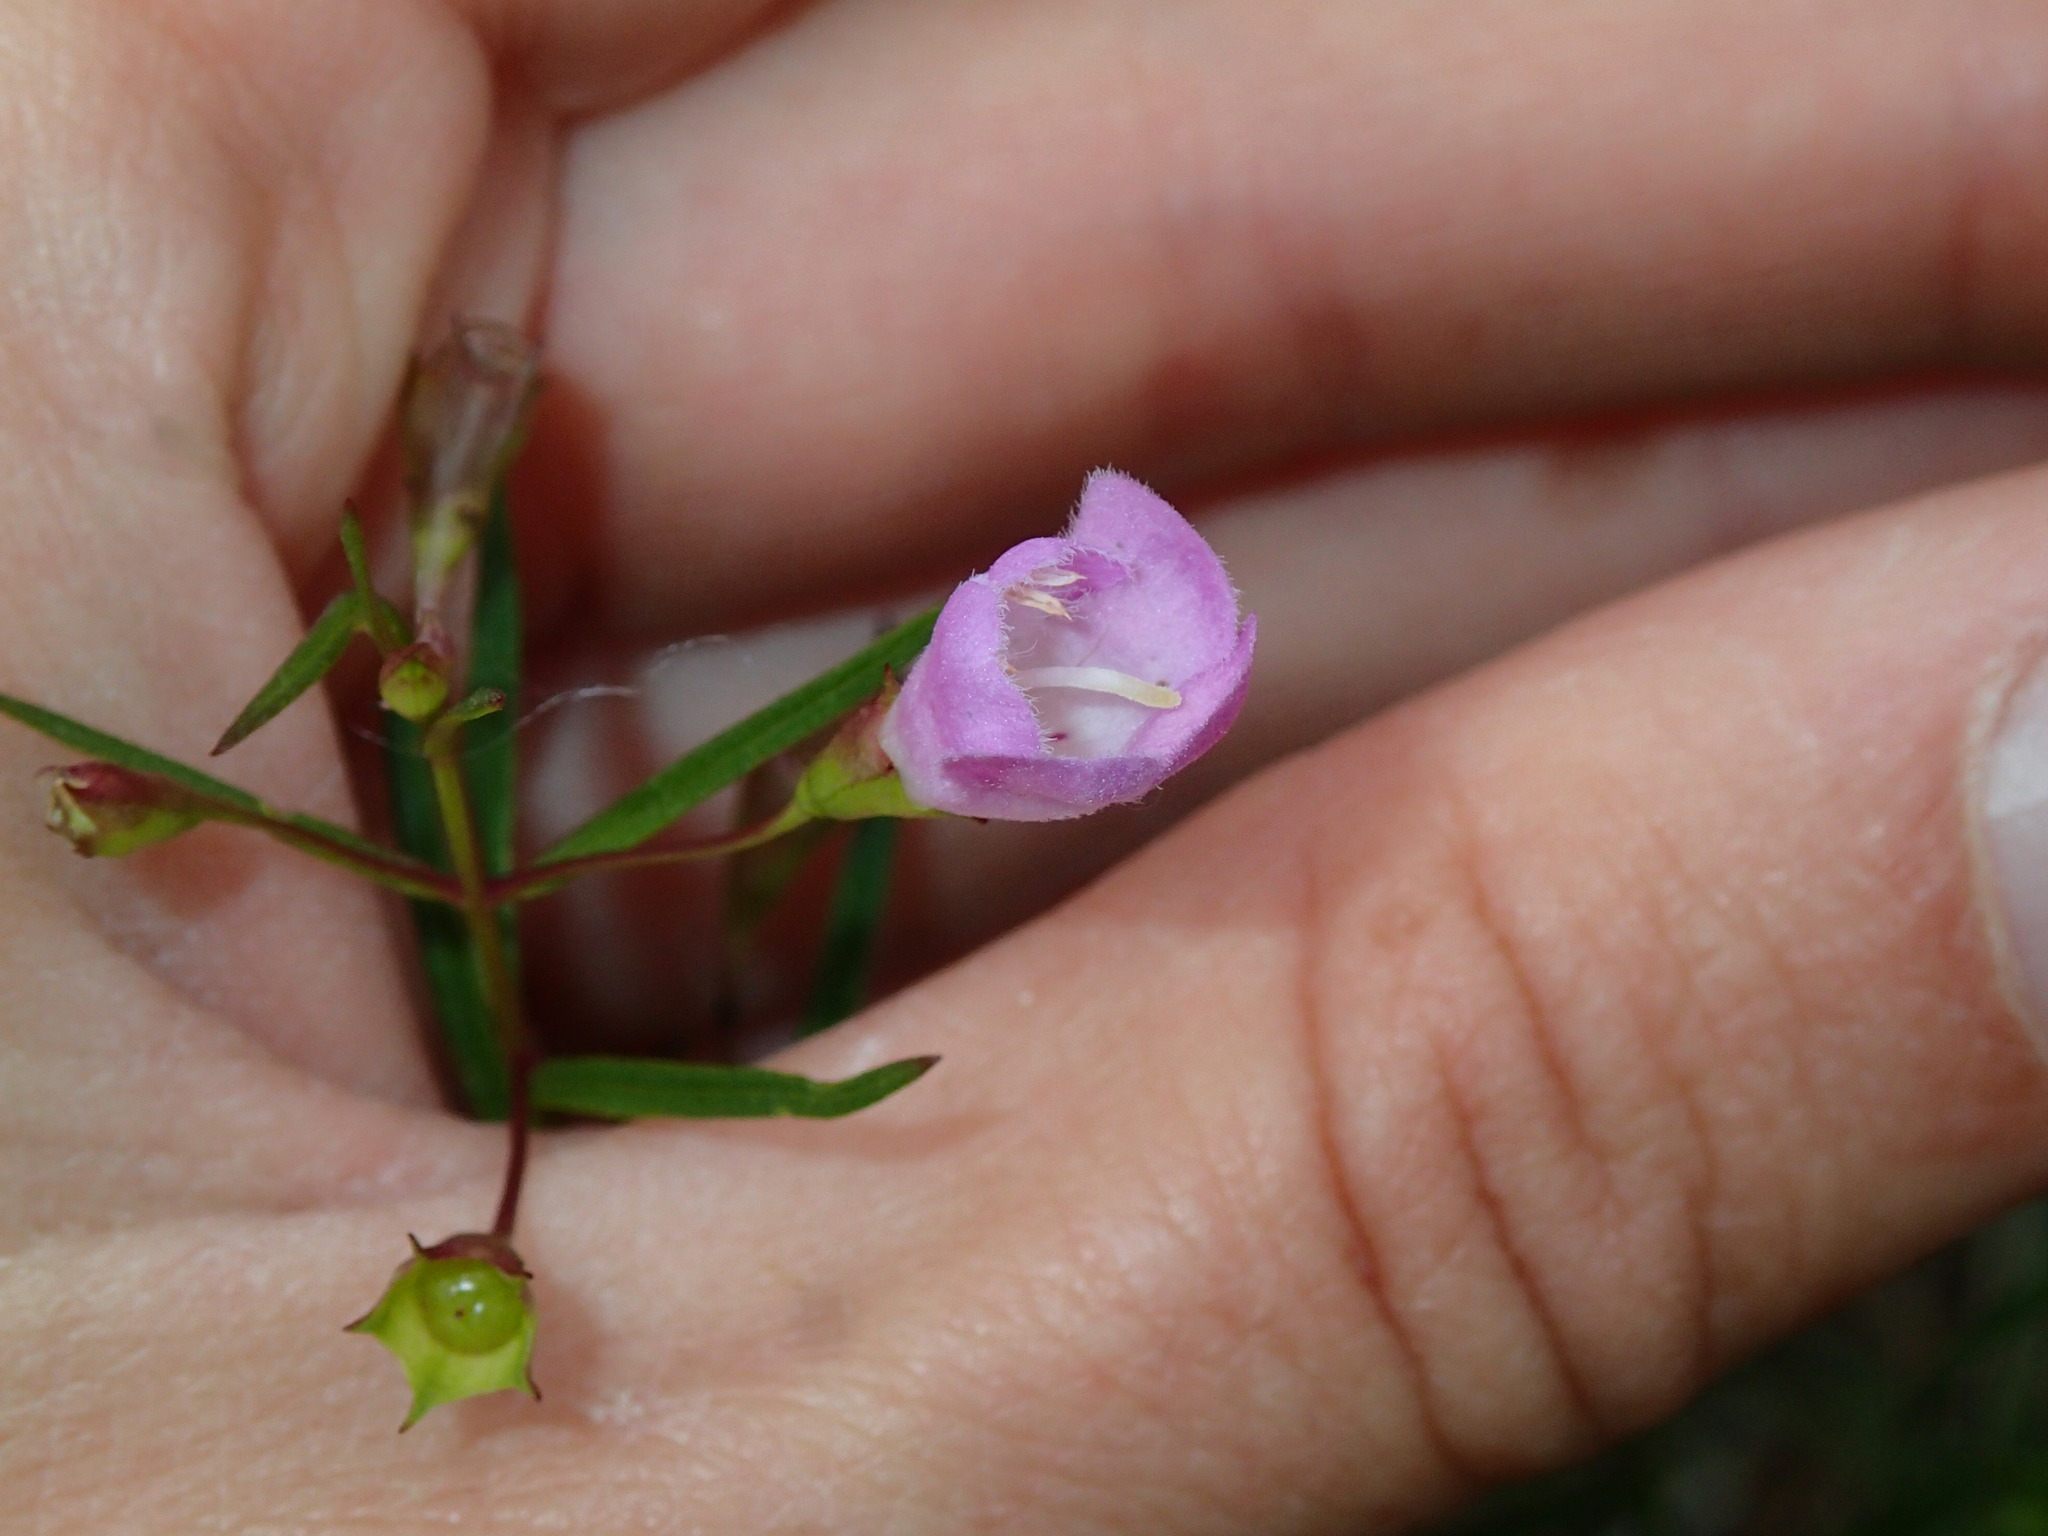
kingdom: Plantae
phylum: Tracheophyta
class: Magnoliopsida
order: Lamiales
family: Orobanchaceae
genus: Agalinis
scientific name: Agalinis tenuifolia
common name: Slender agalinis
